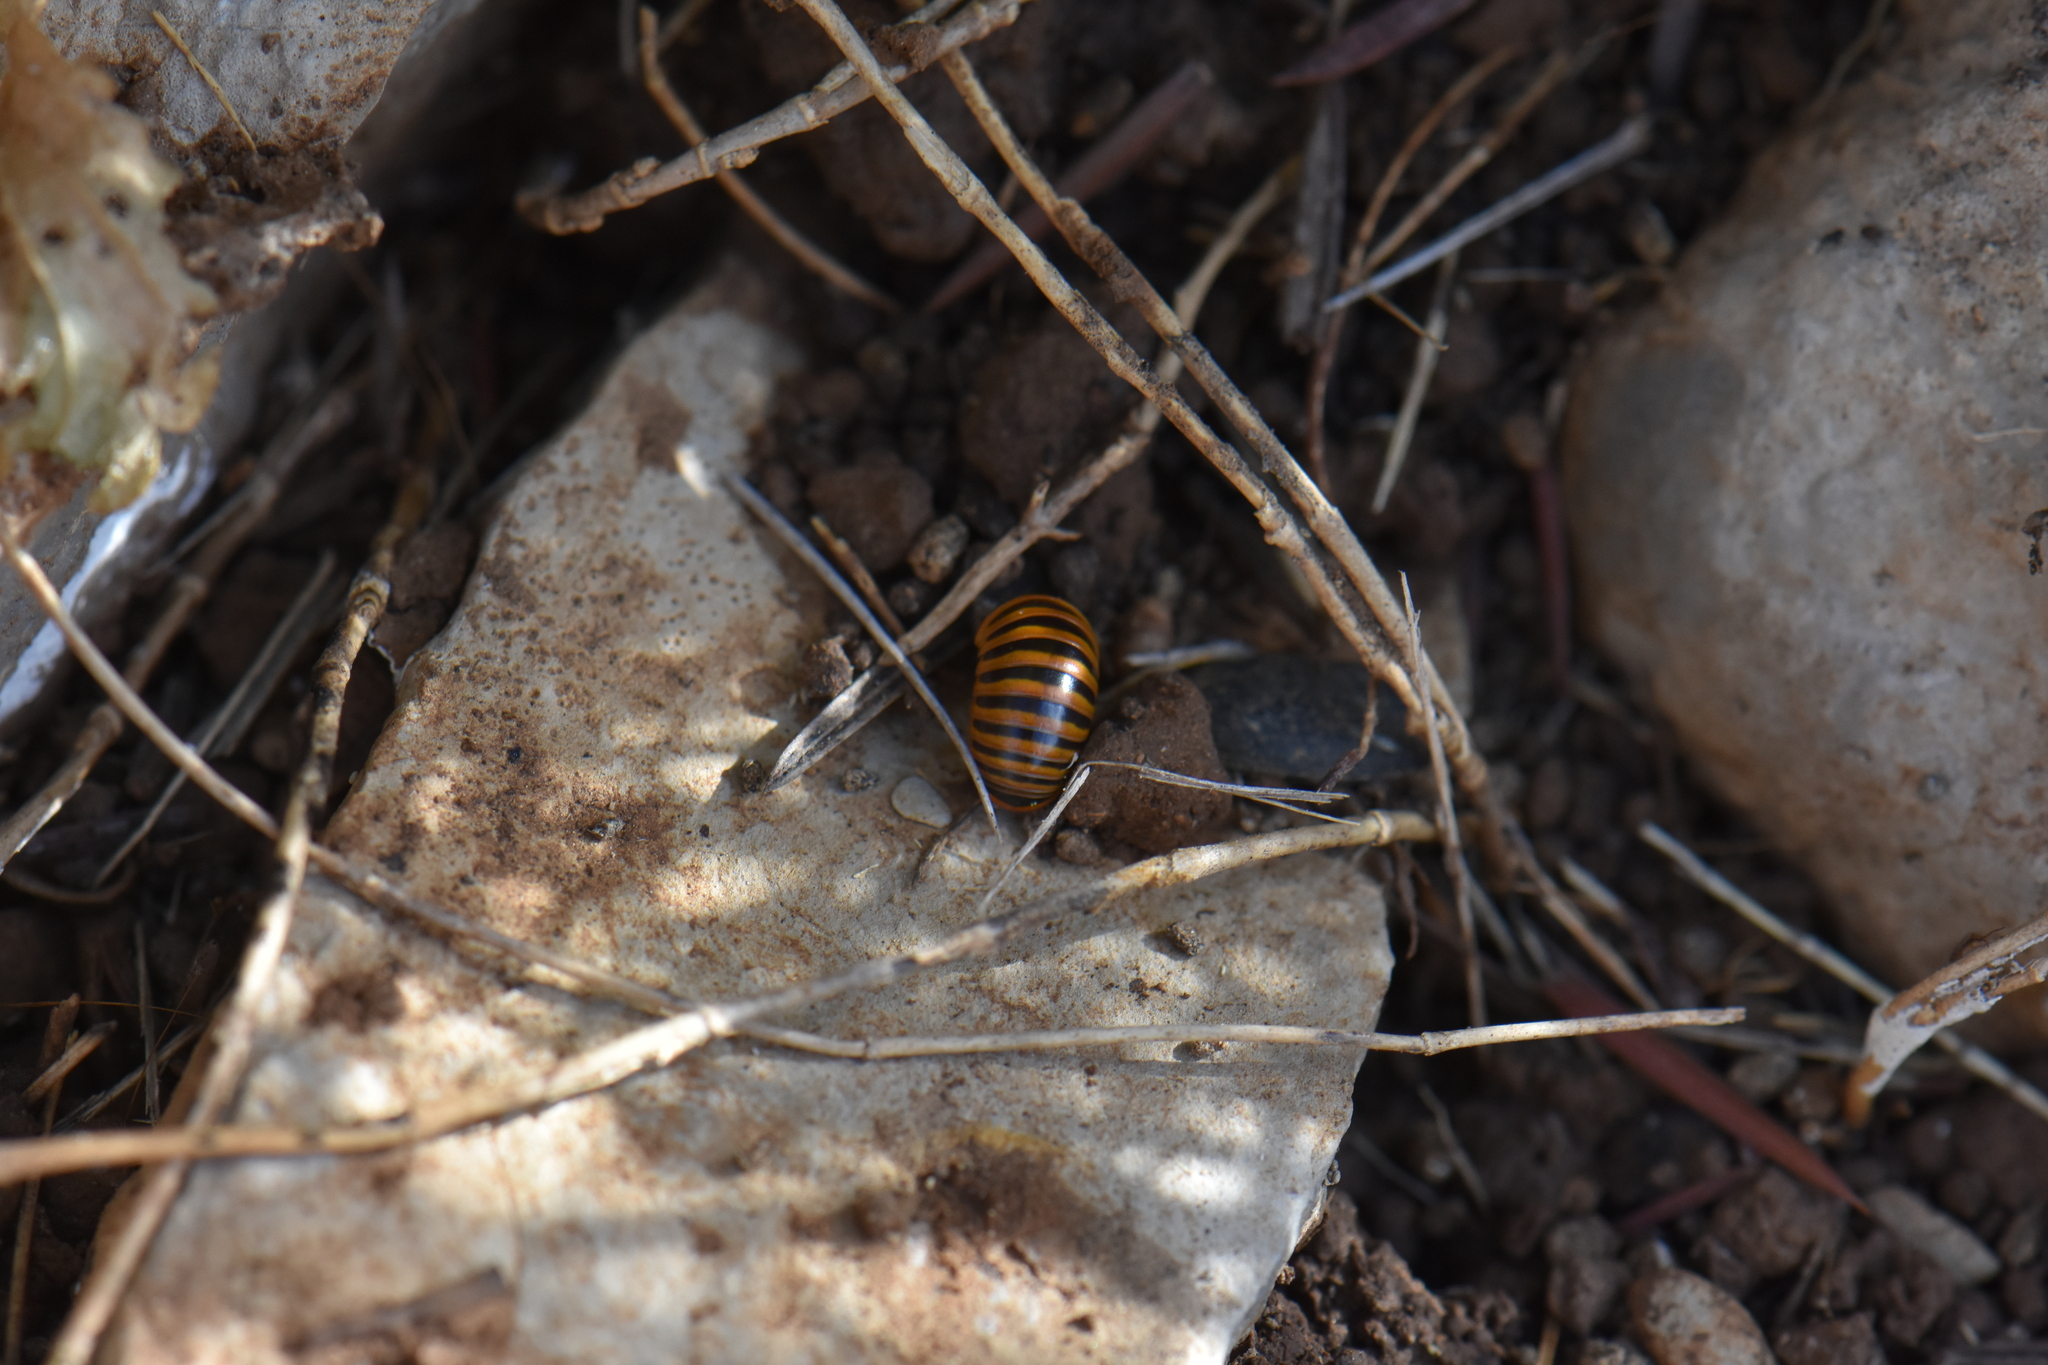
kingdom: Animalia
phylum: Arthropoda
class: Diplopoda
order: Glomerida
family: Glomeridae
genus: Glomeris
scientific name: Glomeris annulata
